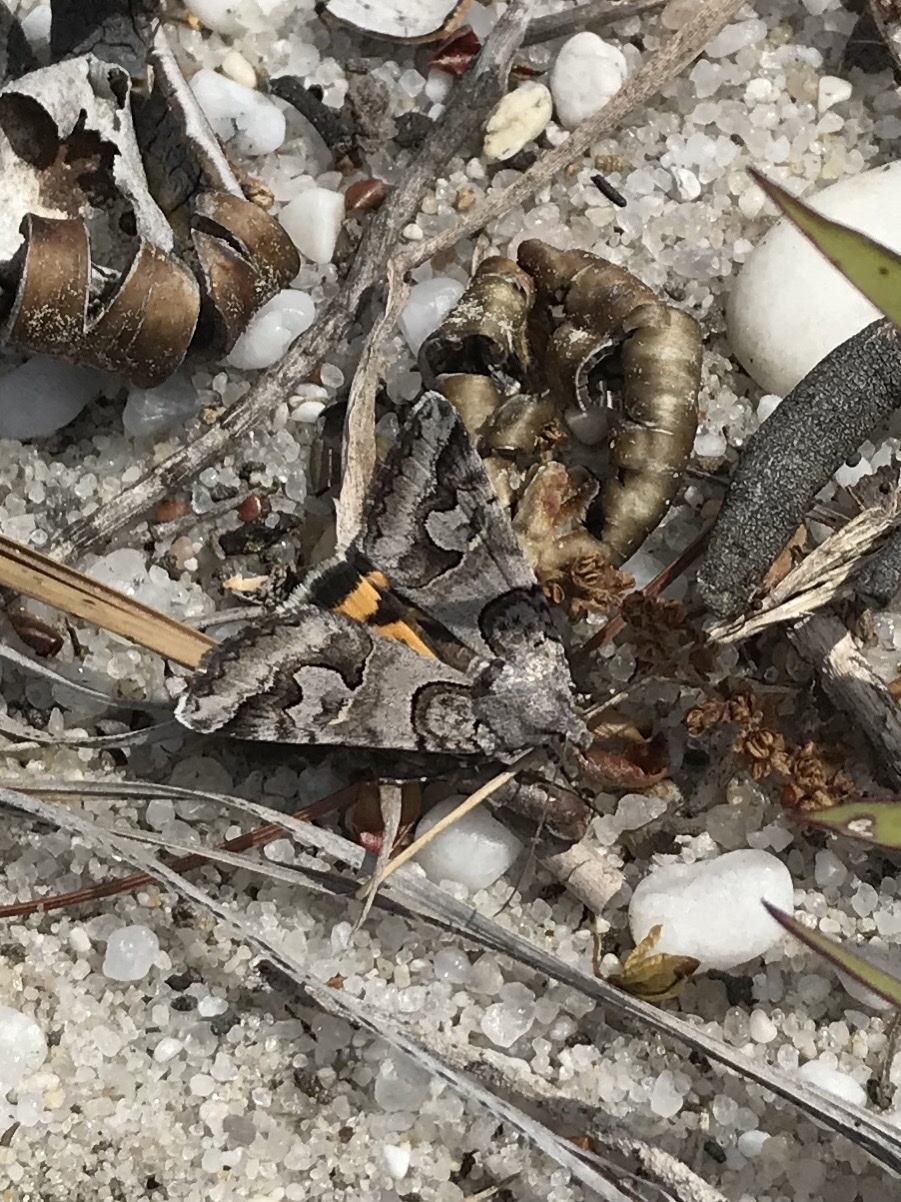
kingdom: Animalia
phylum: Arthropoda
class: Insecta
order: Lepidoptera
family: Erebidae
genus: Drasteria
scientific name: Drasteria graphica
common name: Coastal graphic
